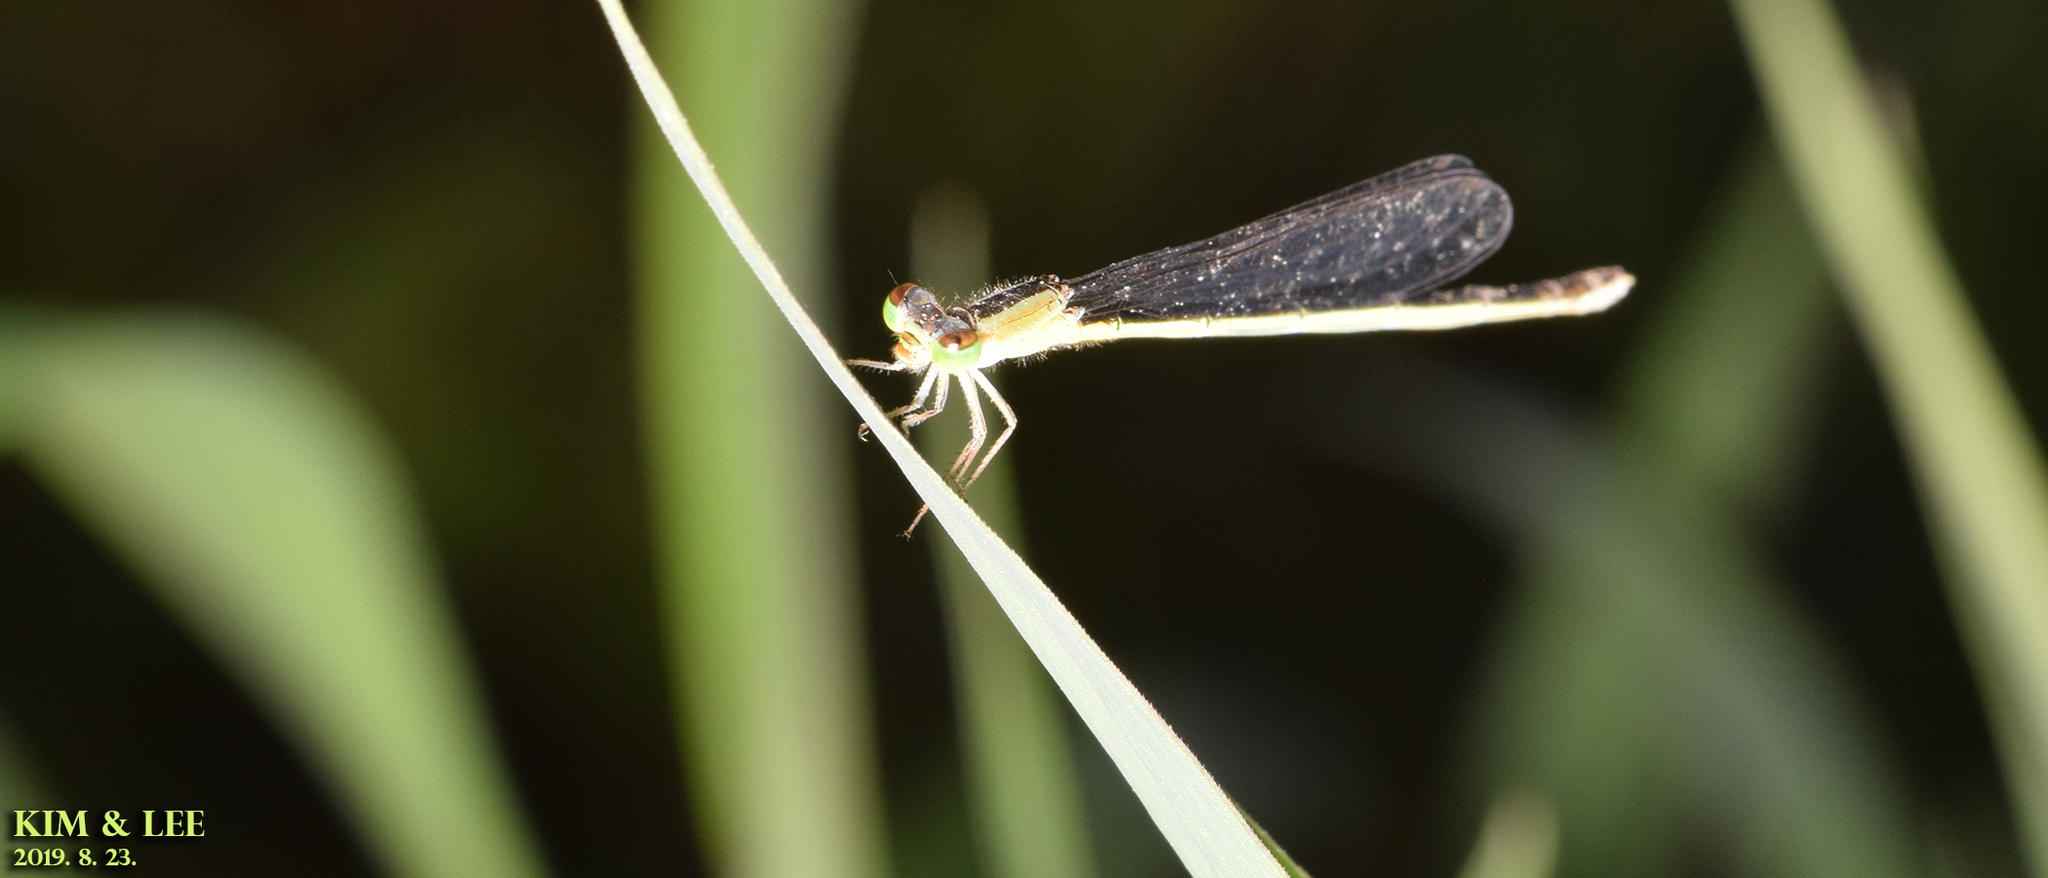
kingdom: Animalia
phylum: Arthropoda
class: Insecta
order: Odonata
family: Coenagrionidae
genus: Ischnura
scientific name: Ischnura asiatica
